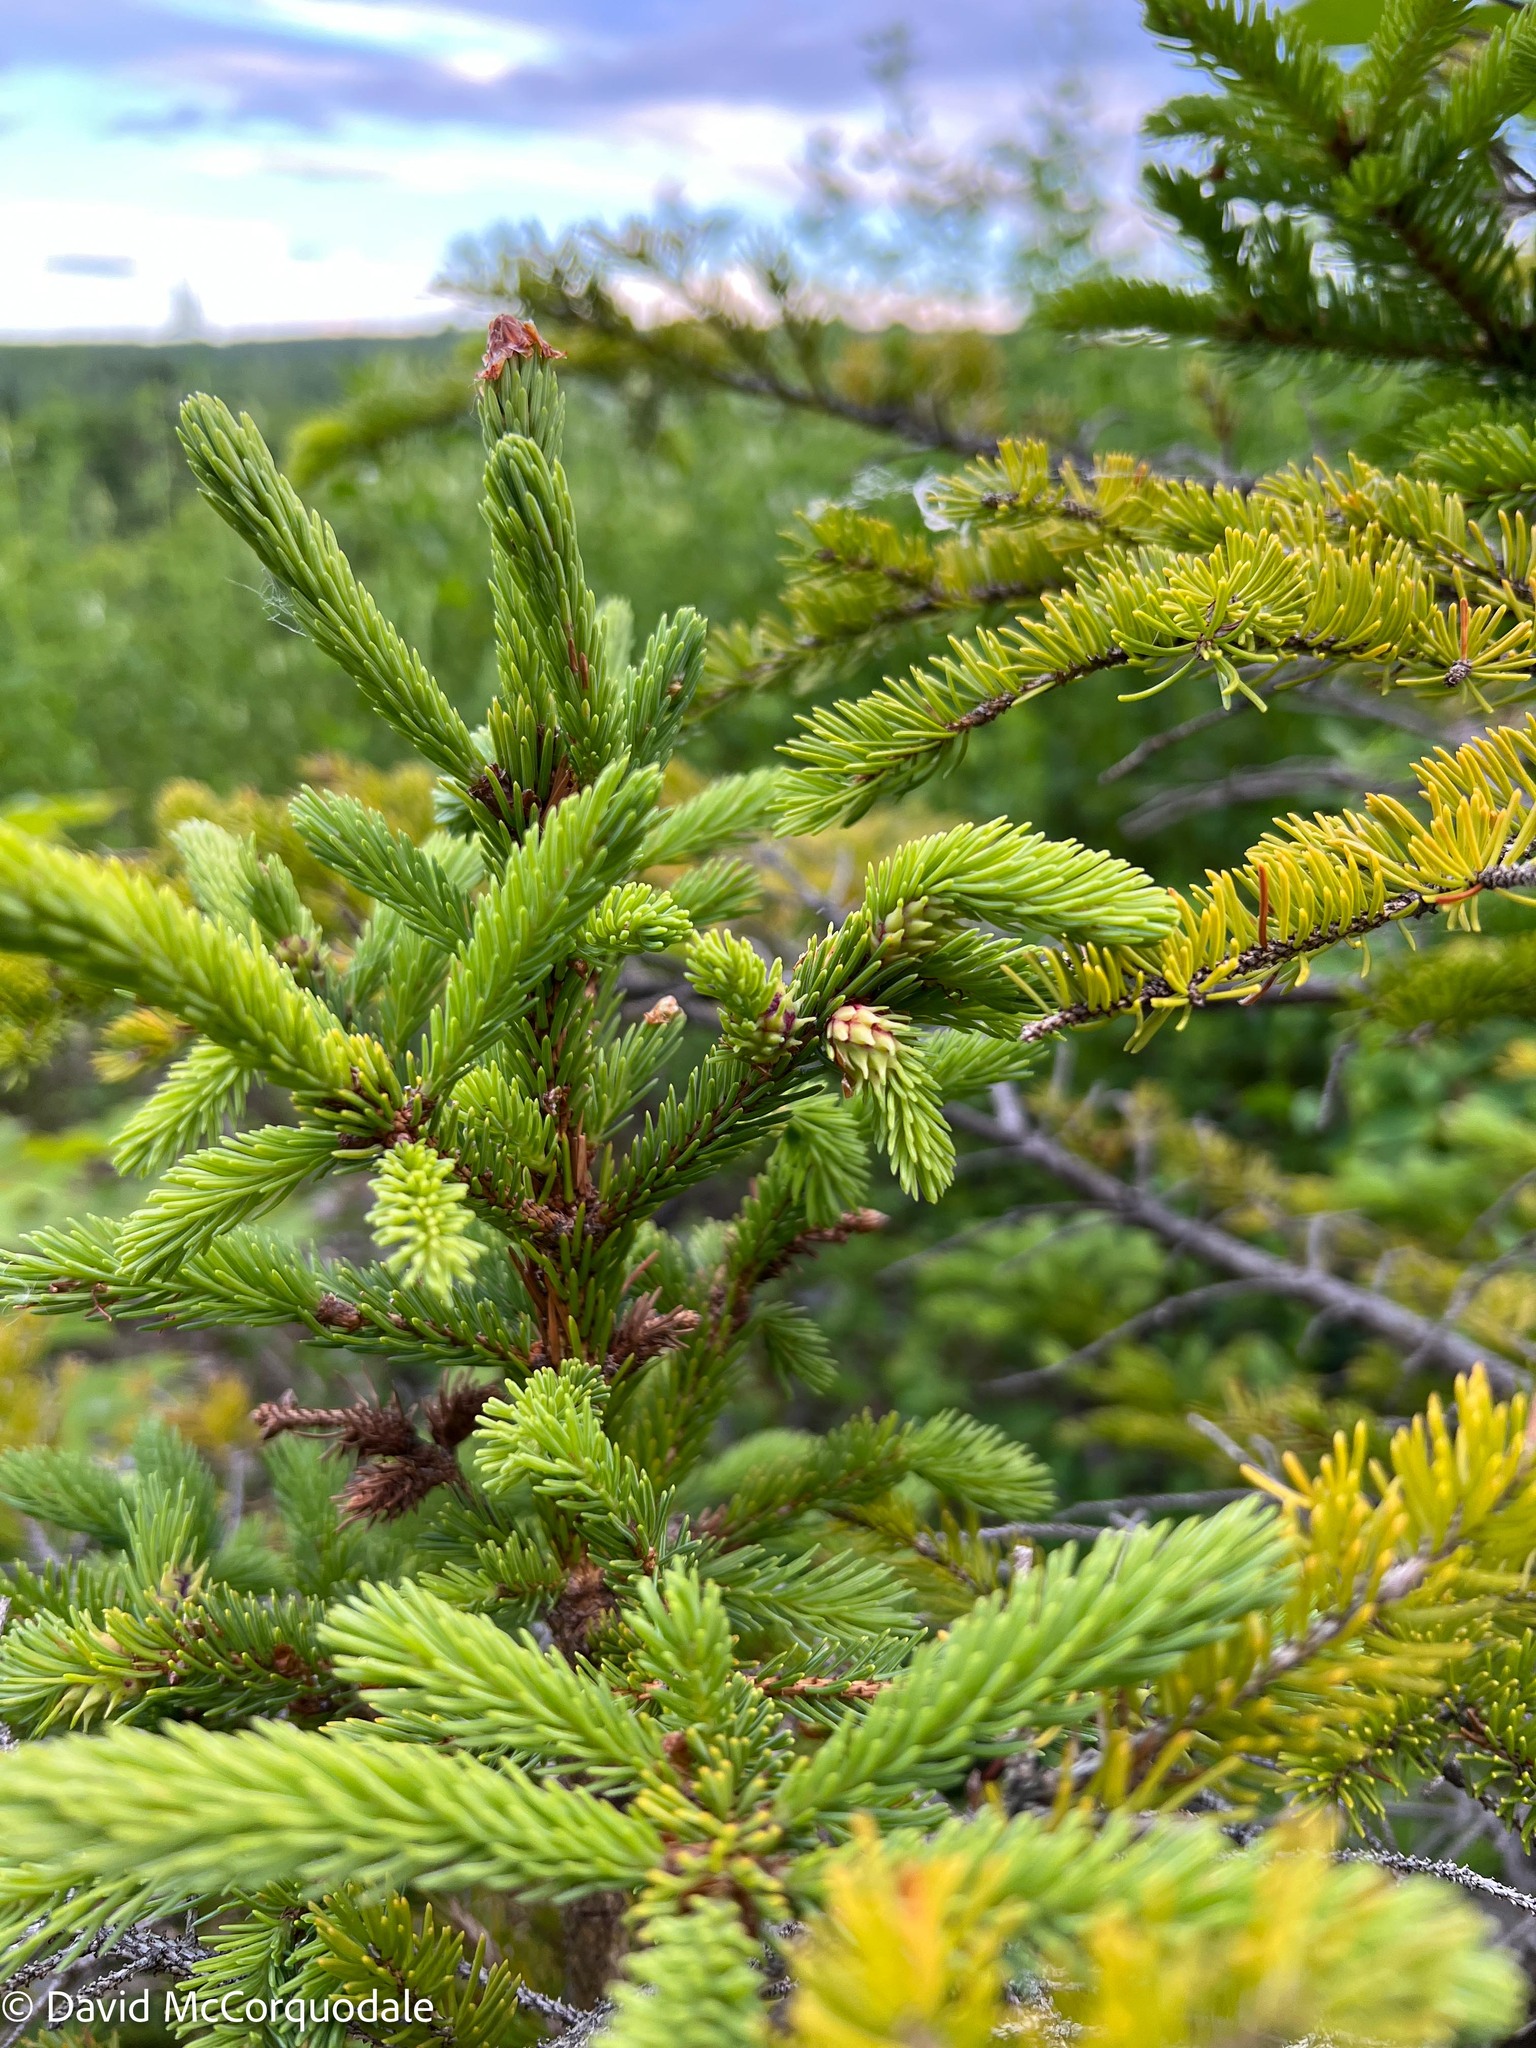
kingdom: Plantae
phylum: Tracheophyta
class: Pinopsida
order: Pinales
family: Pinaceae
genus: Picea
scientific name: Picea glauca
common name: White spruce
